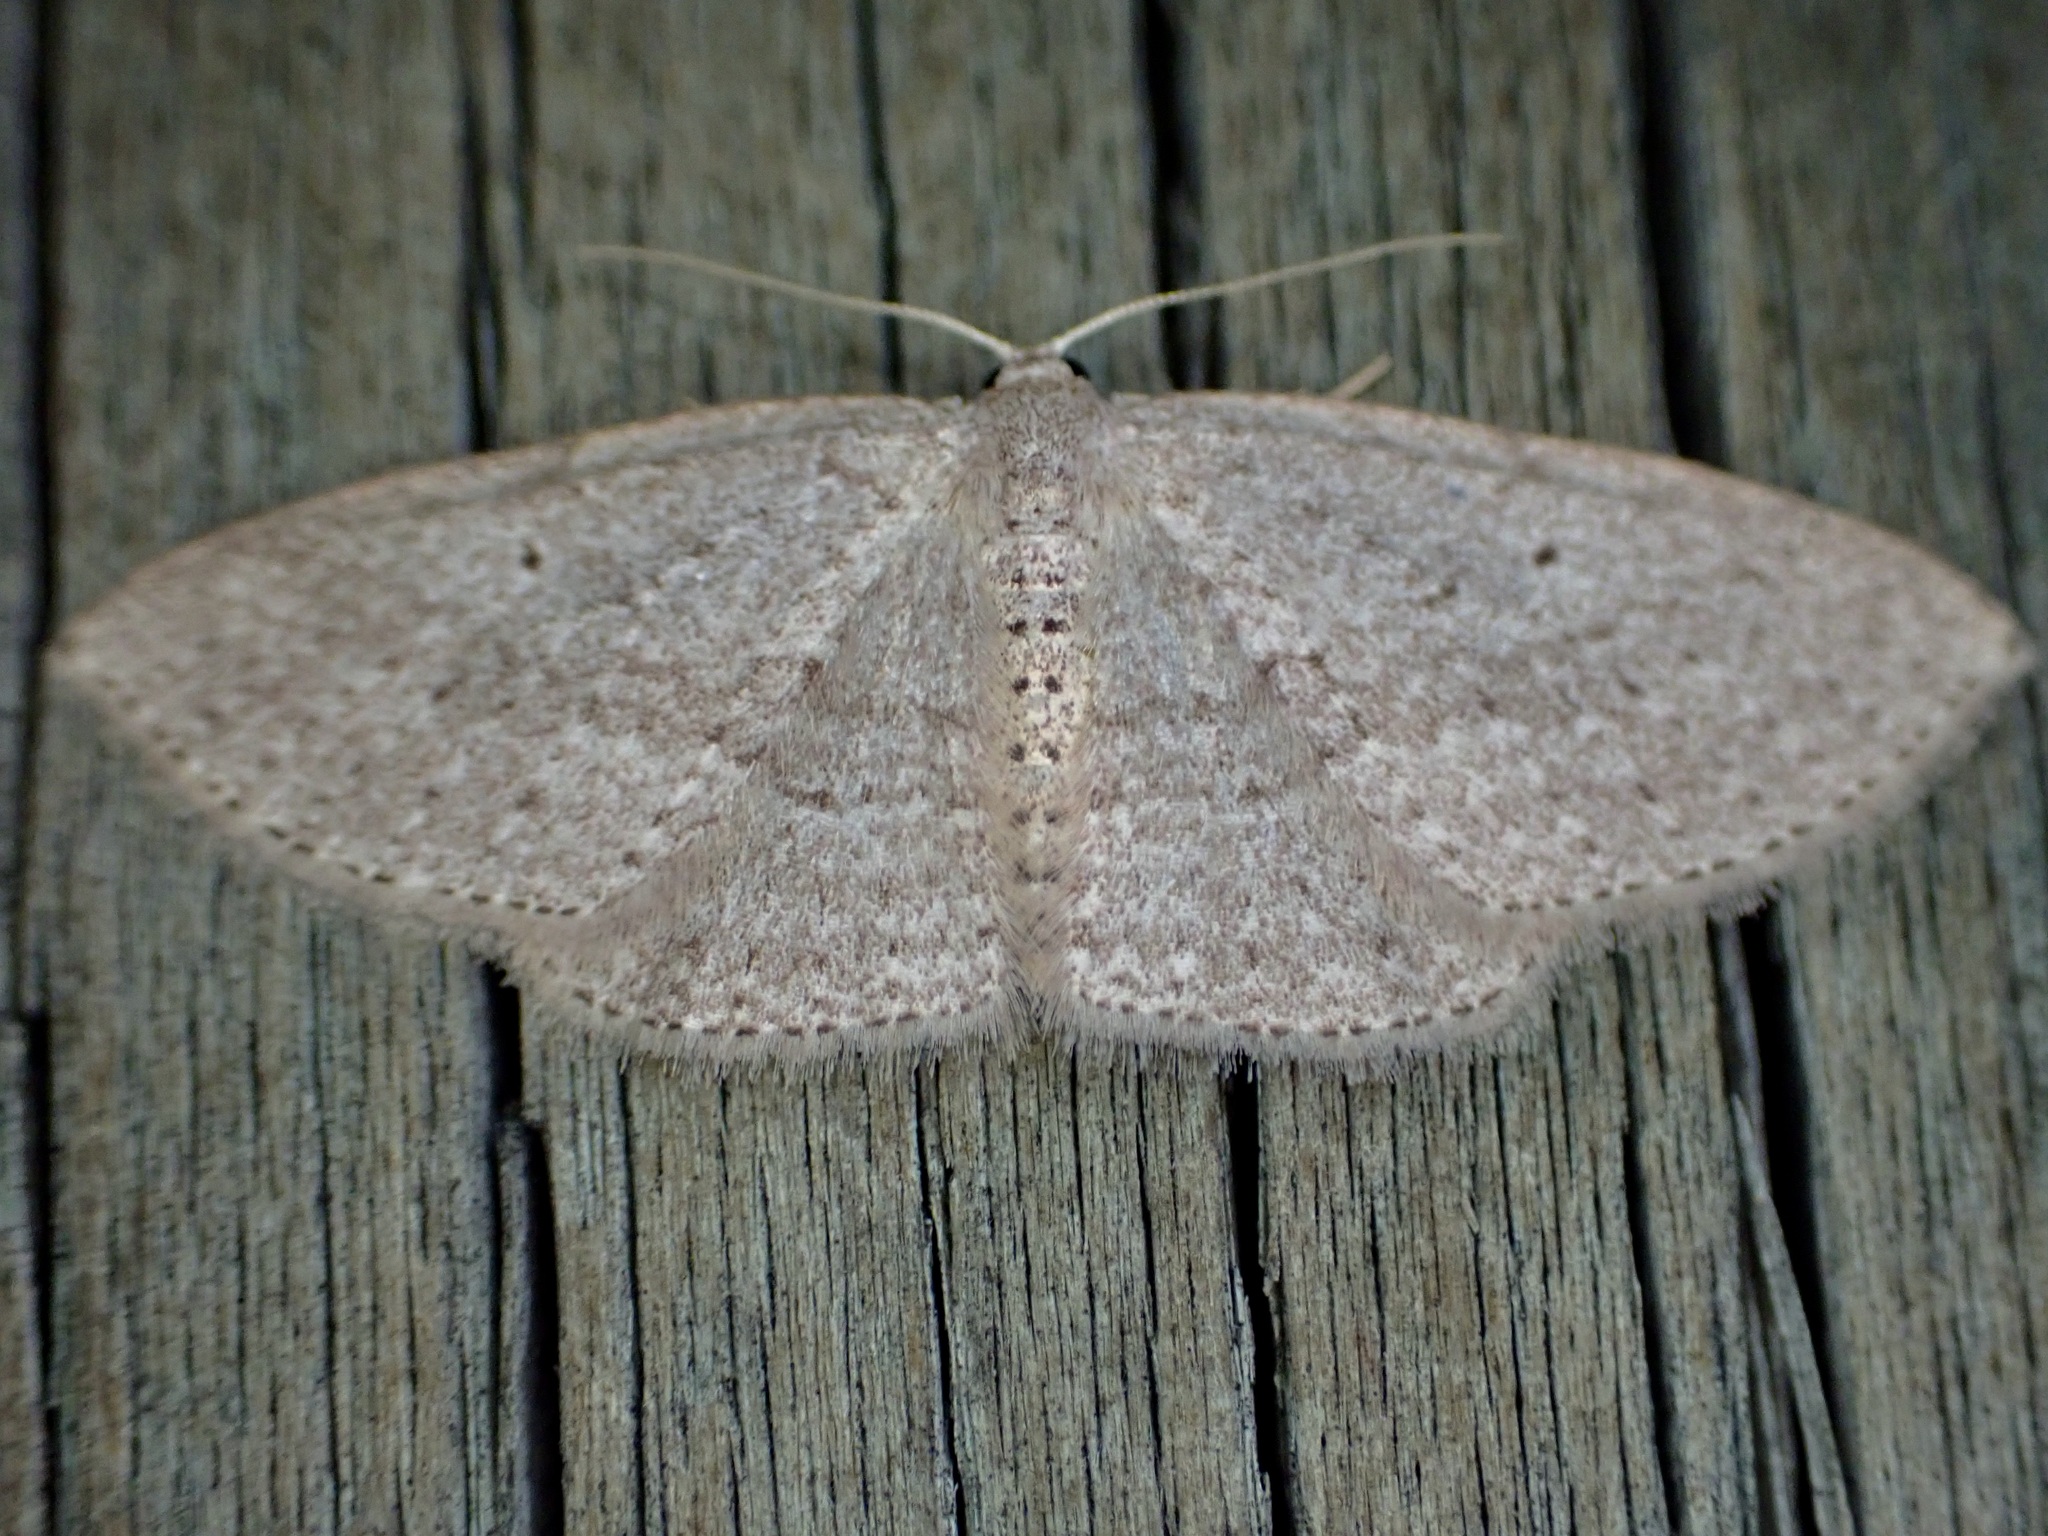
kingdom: Animalia
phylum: Arthropoda
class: Insecta
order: Lepidoptera
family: Geometridae
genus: Poecilasthena
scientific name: Poecilasthena schistaria
